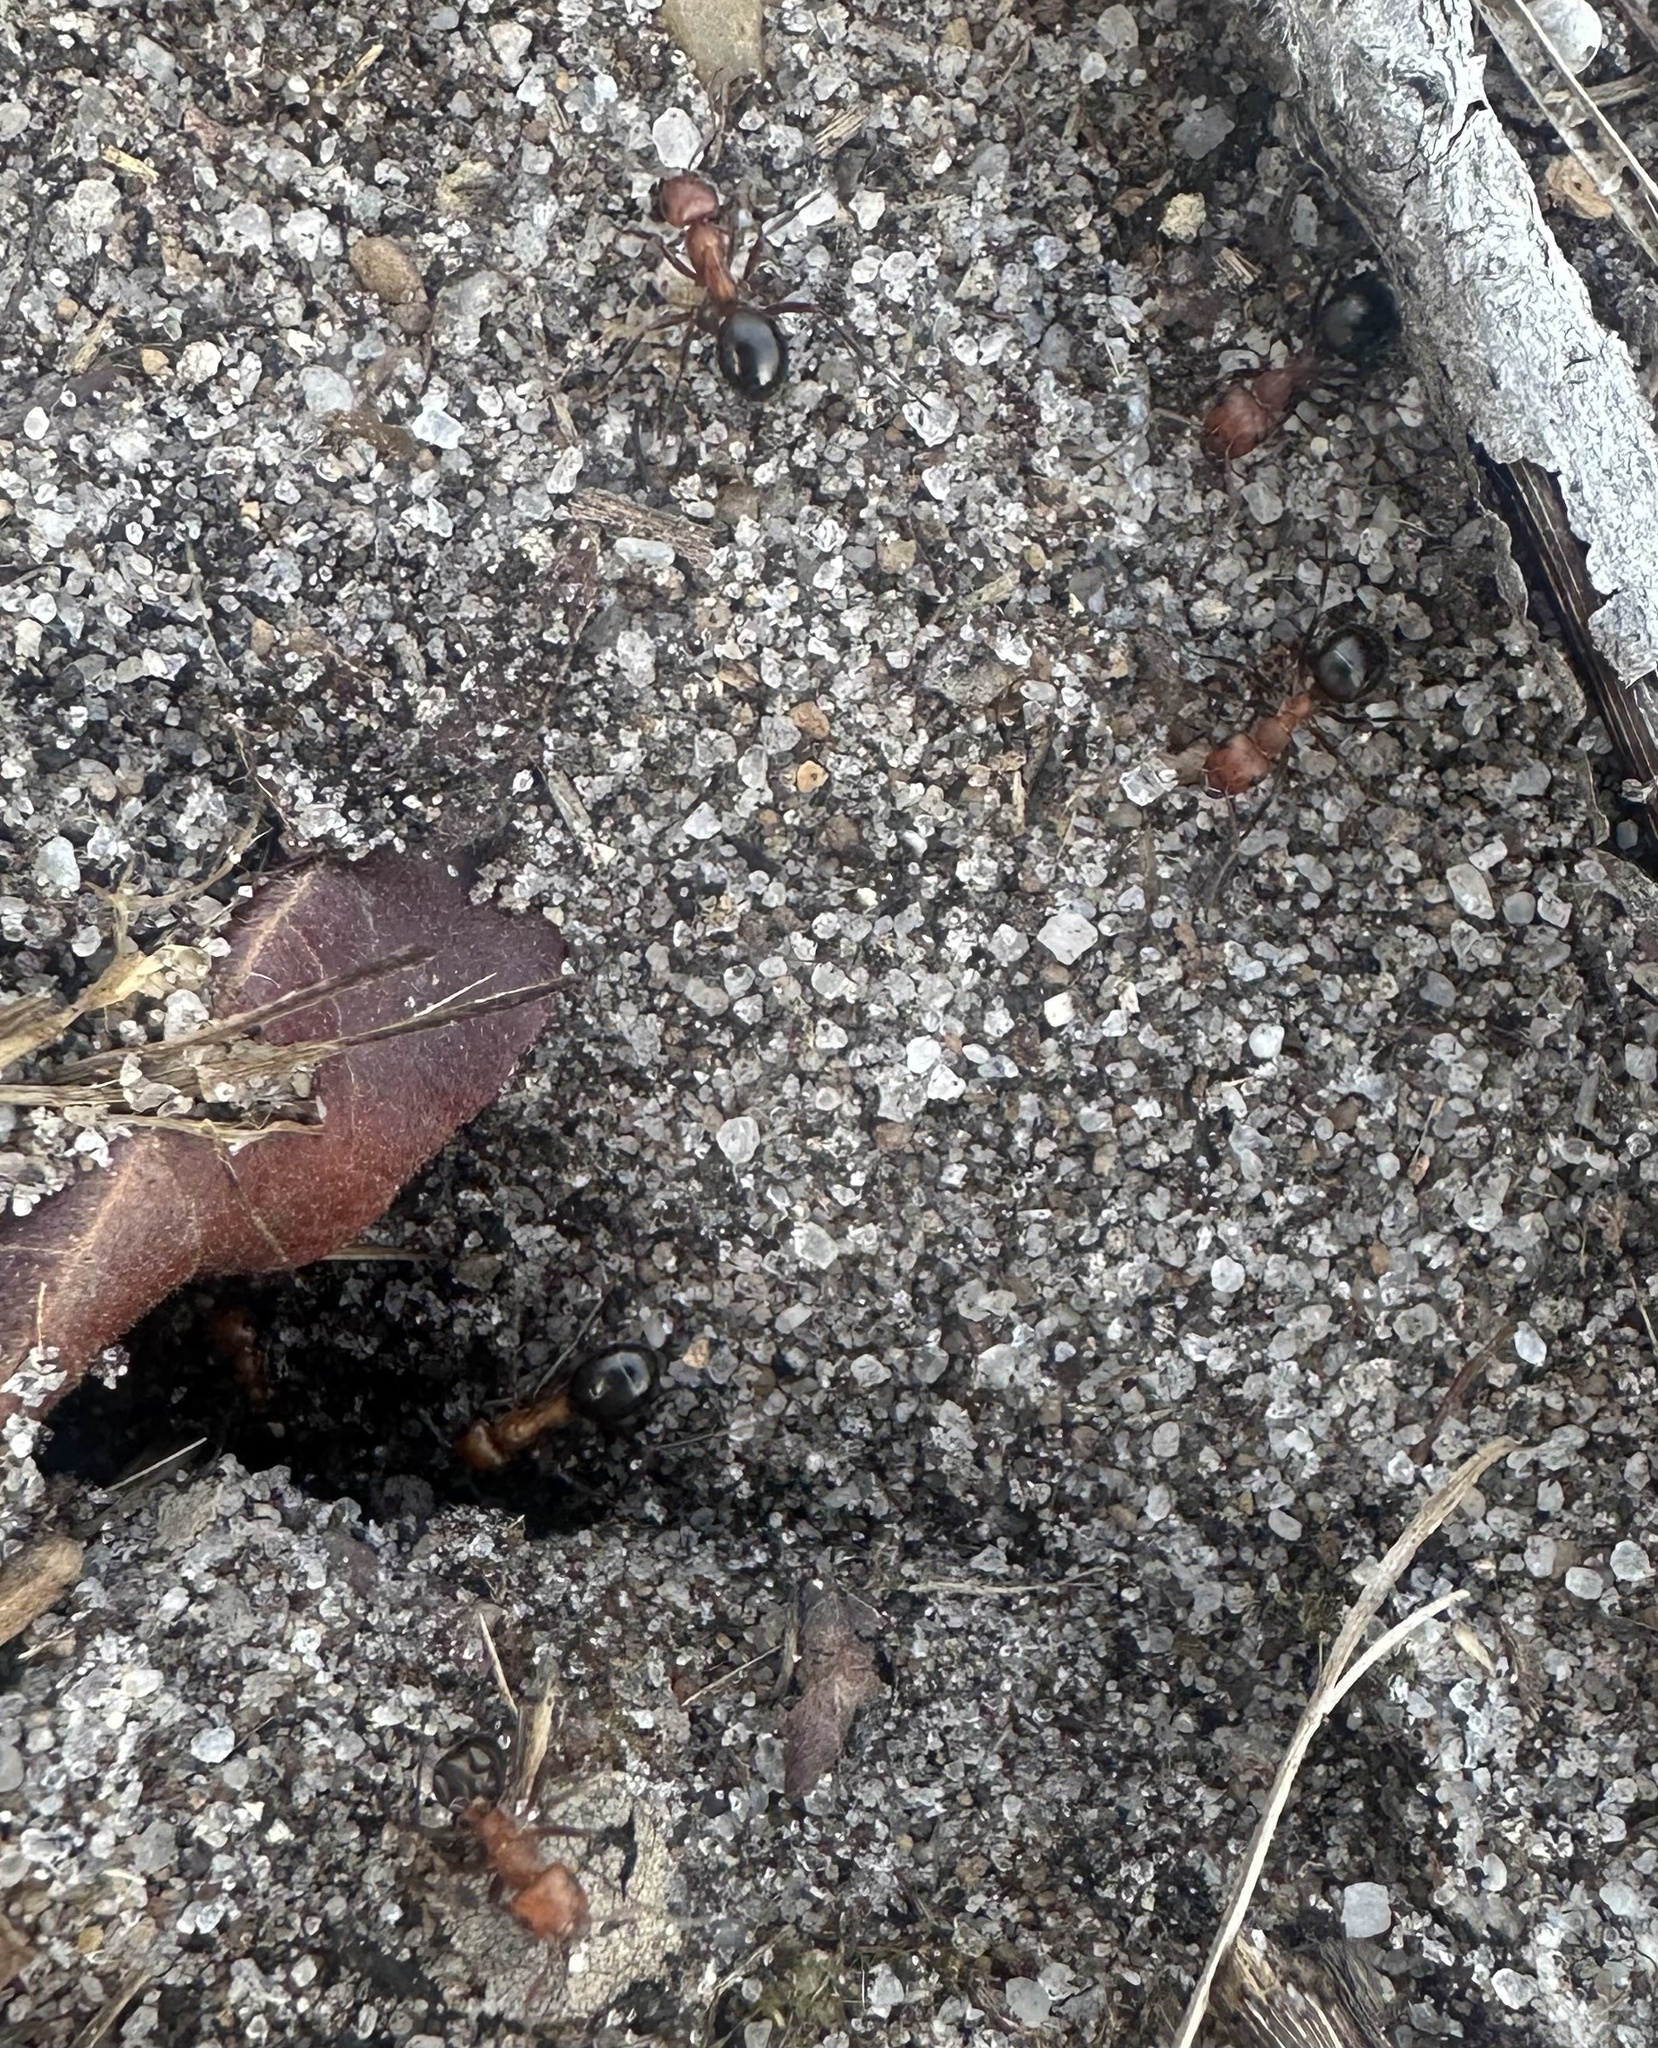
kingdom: Animalia
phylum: Arthropoda
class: Insecta
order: Hymenoptera
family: Formicidae
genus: Formica
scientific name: Formica exsectoides
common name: Allegheny mound ant
